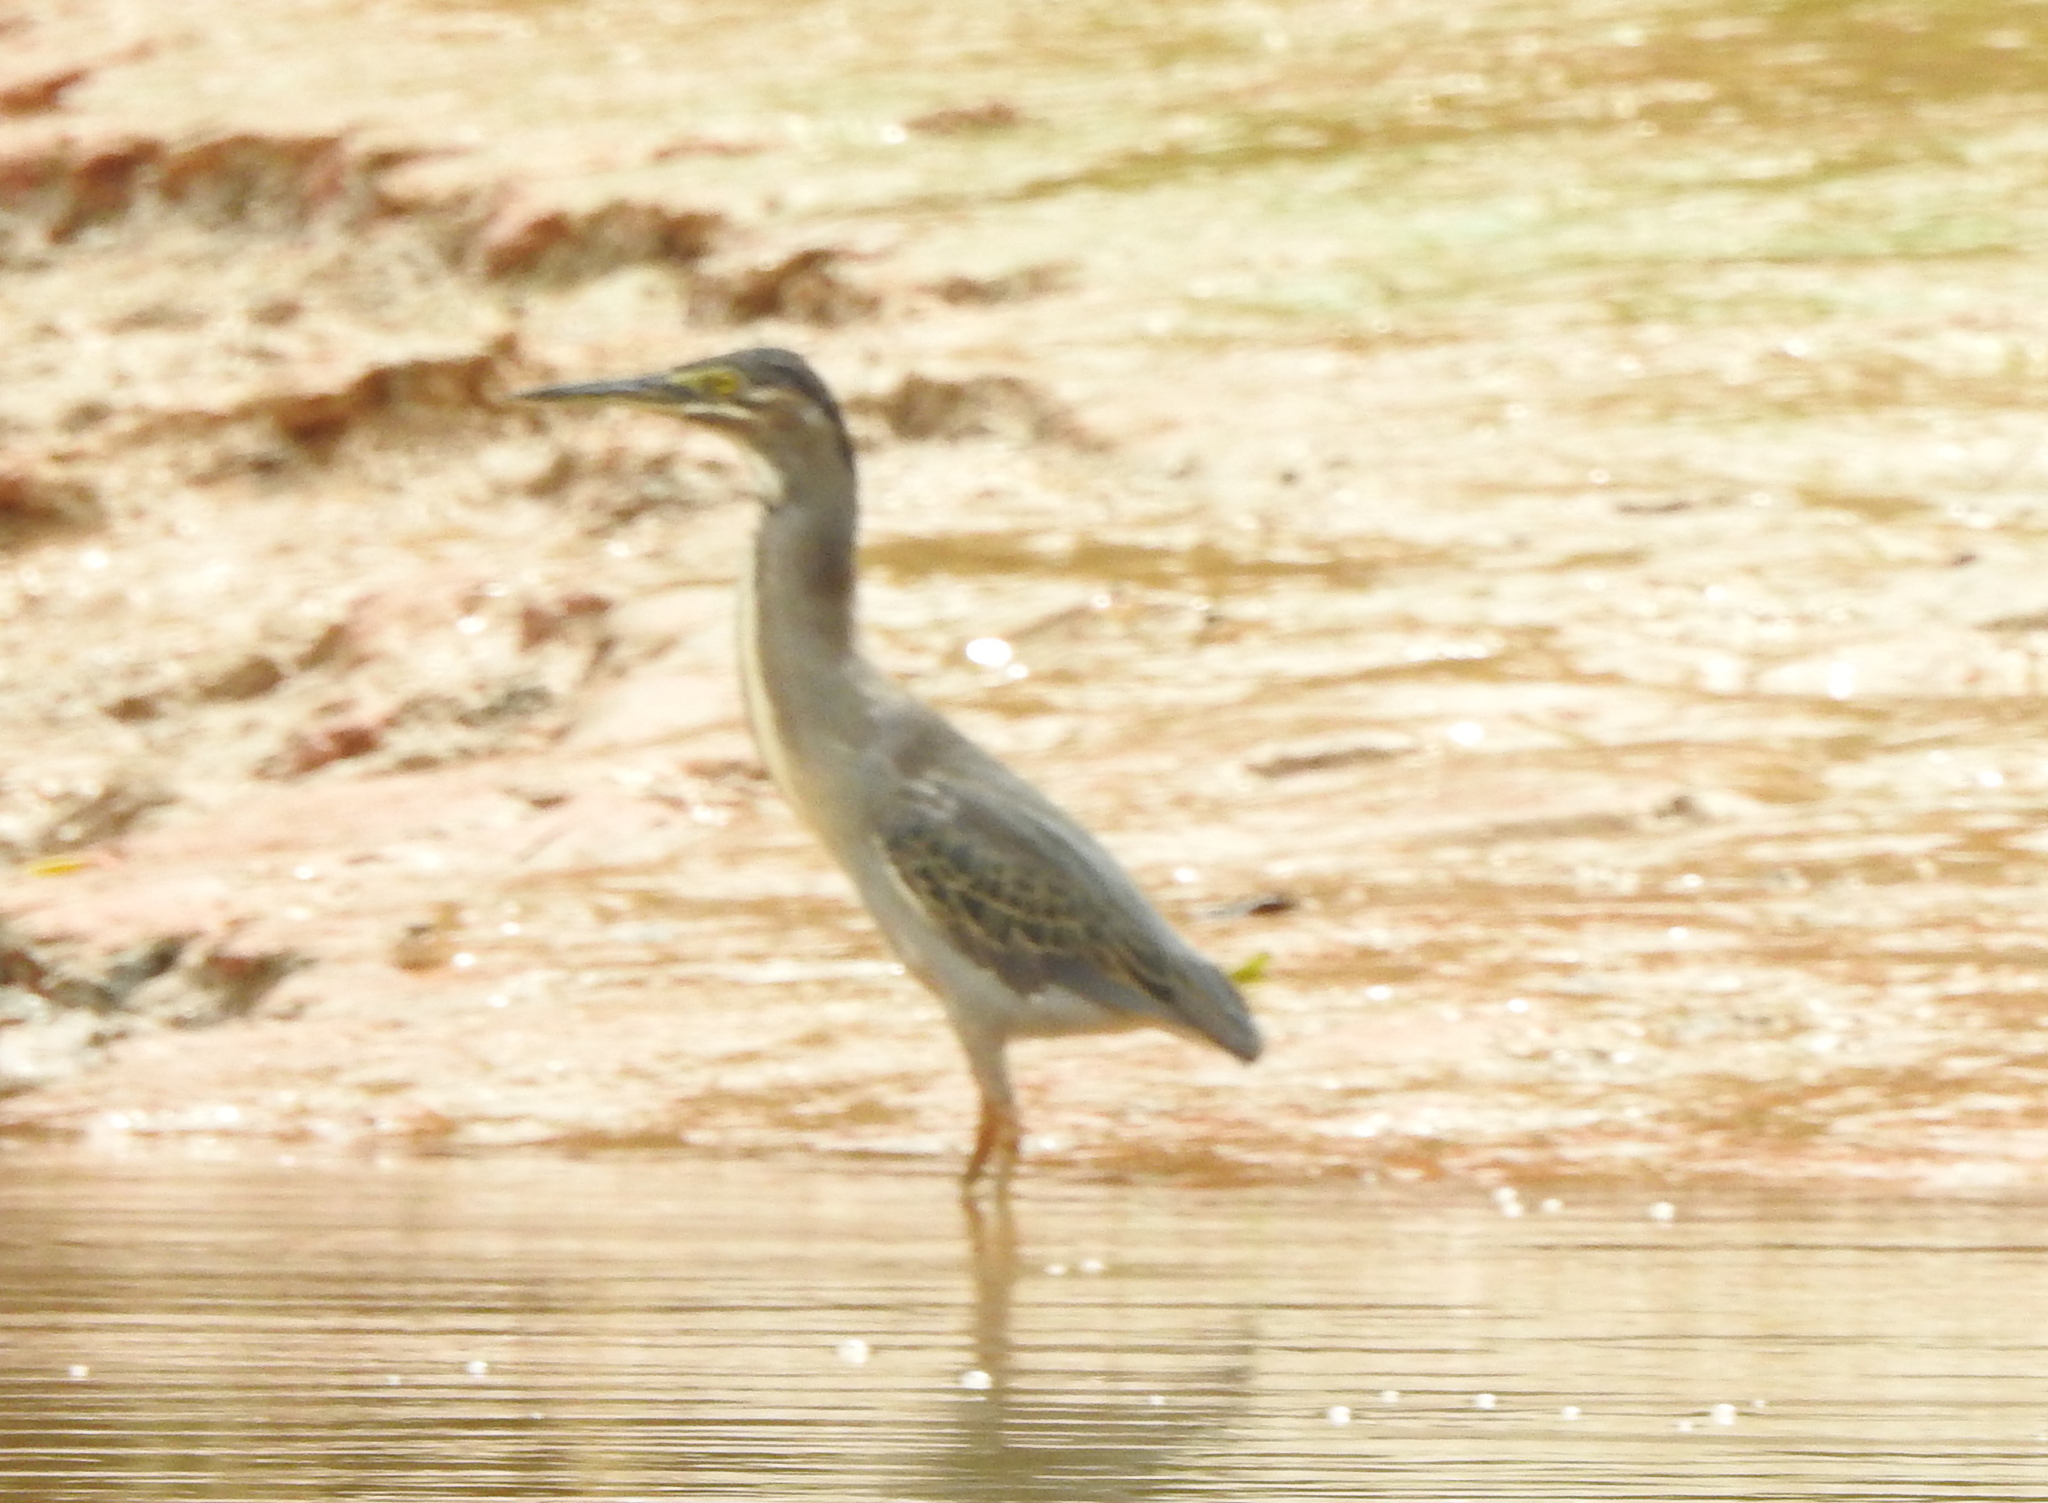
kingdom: Animalia
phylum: Chordata
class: Aves
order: Pelecaniformes
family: Ardeidae
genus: Butorides
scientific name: Butorides striata
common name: Striated heron
